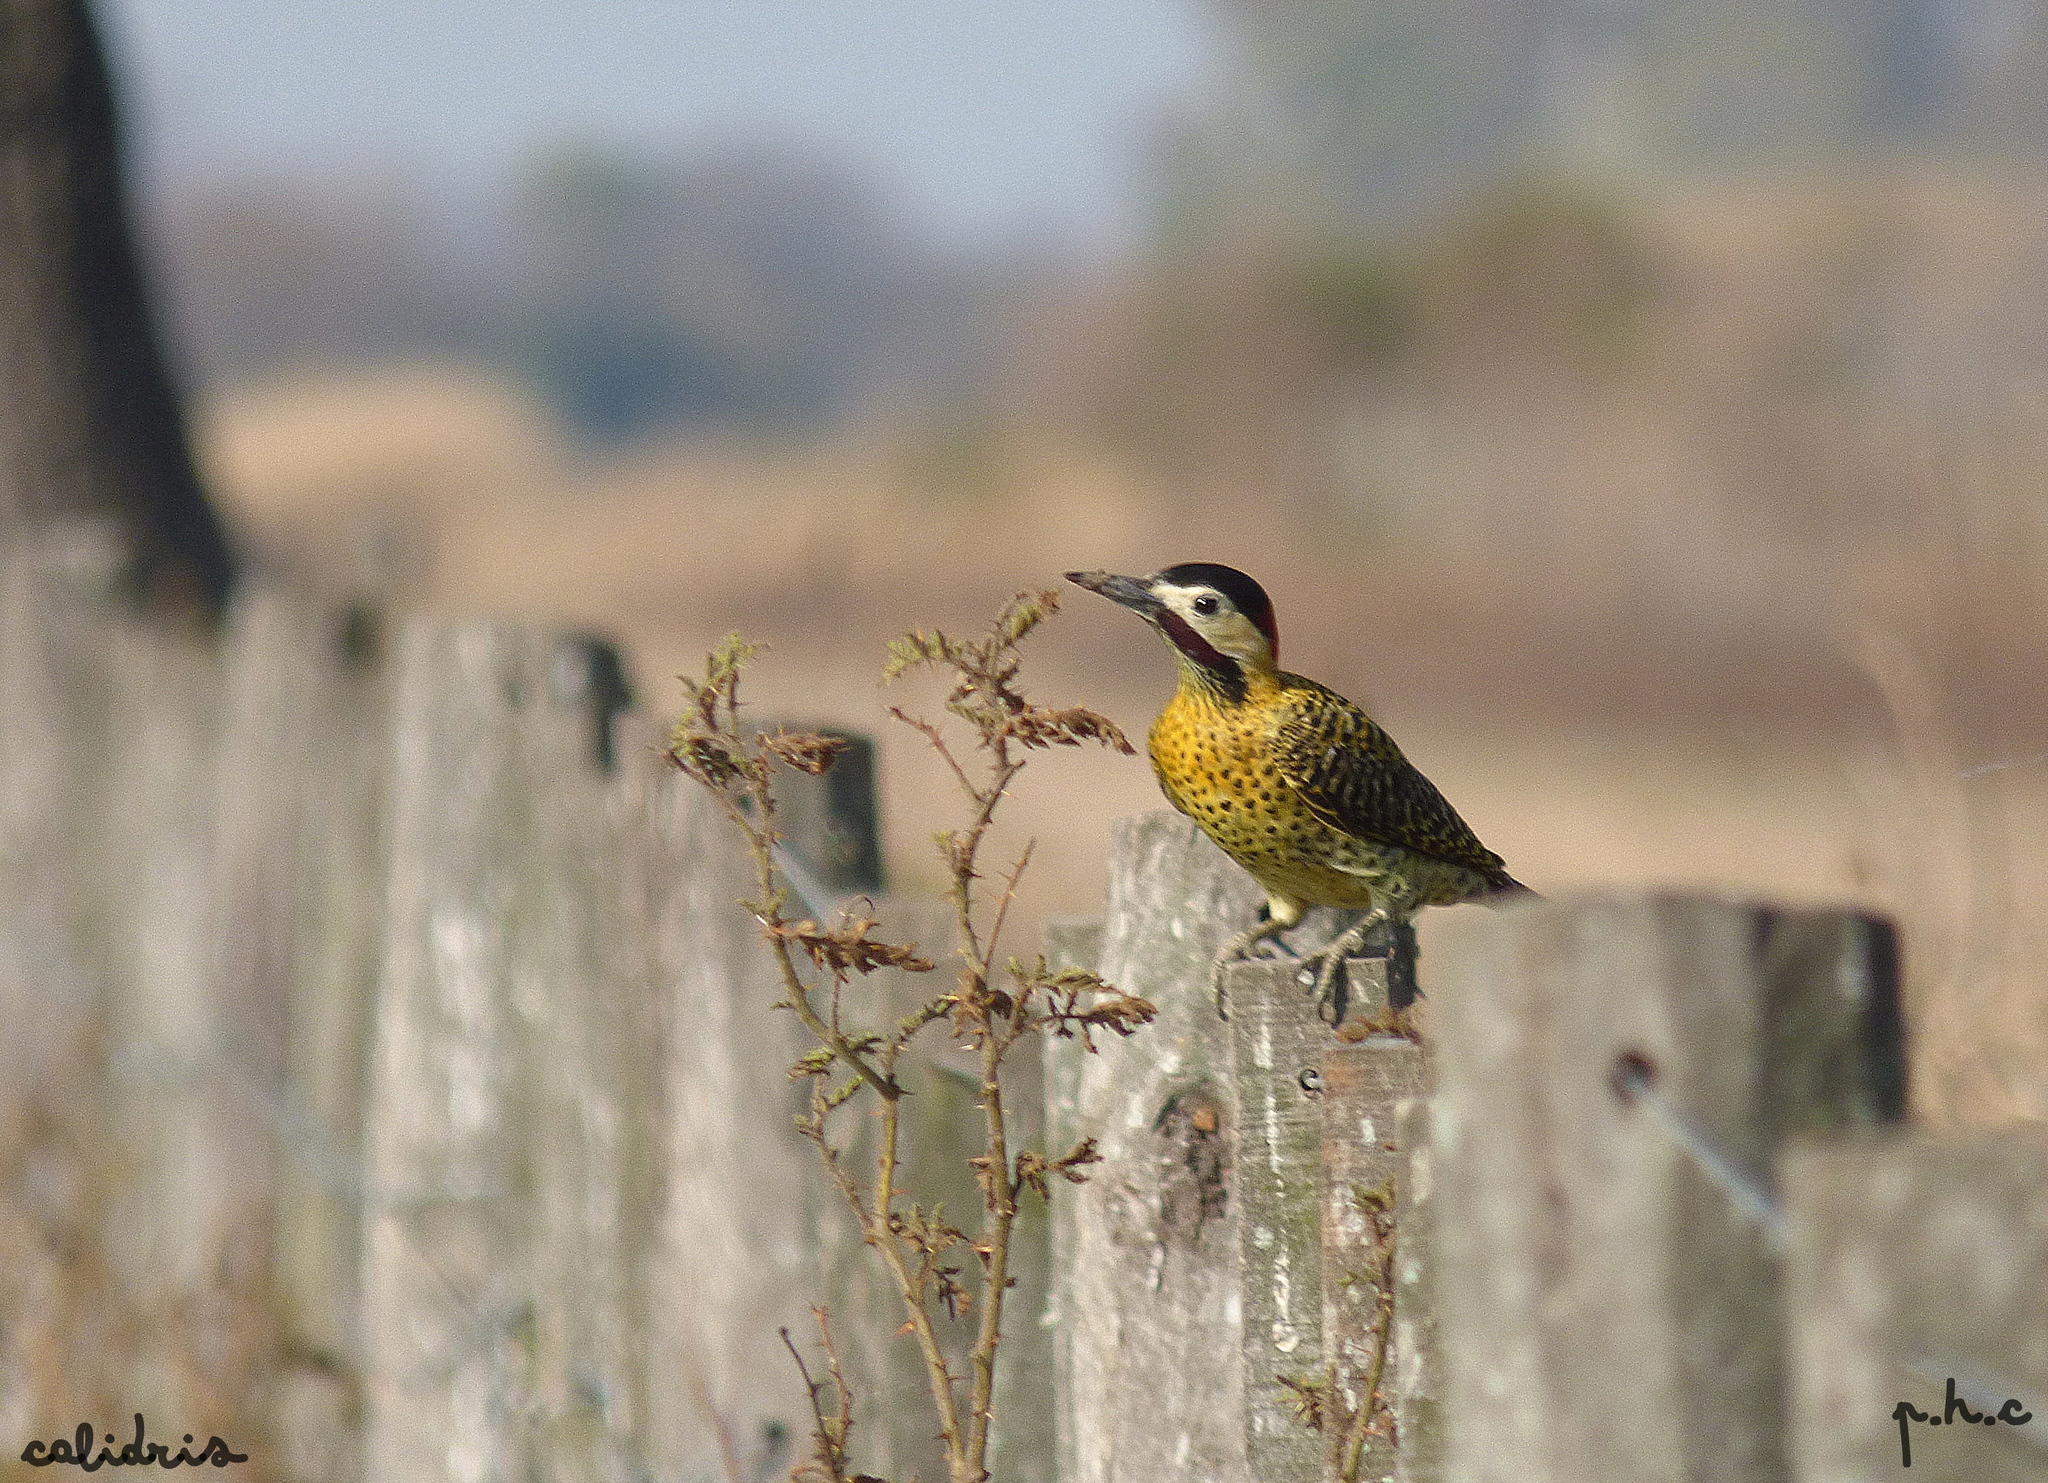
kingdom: Animalia
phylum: Chordata
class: Aves
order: Piciformes
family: Picidae
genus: Colaptes
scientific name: Colaptes melanochloros
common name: Green-barred woodpecker
